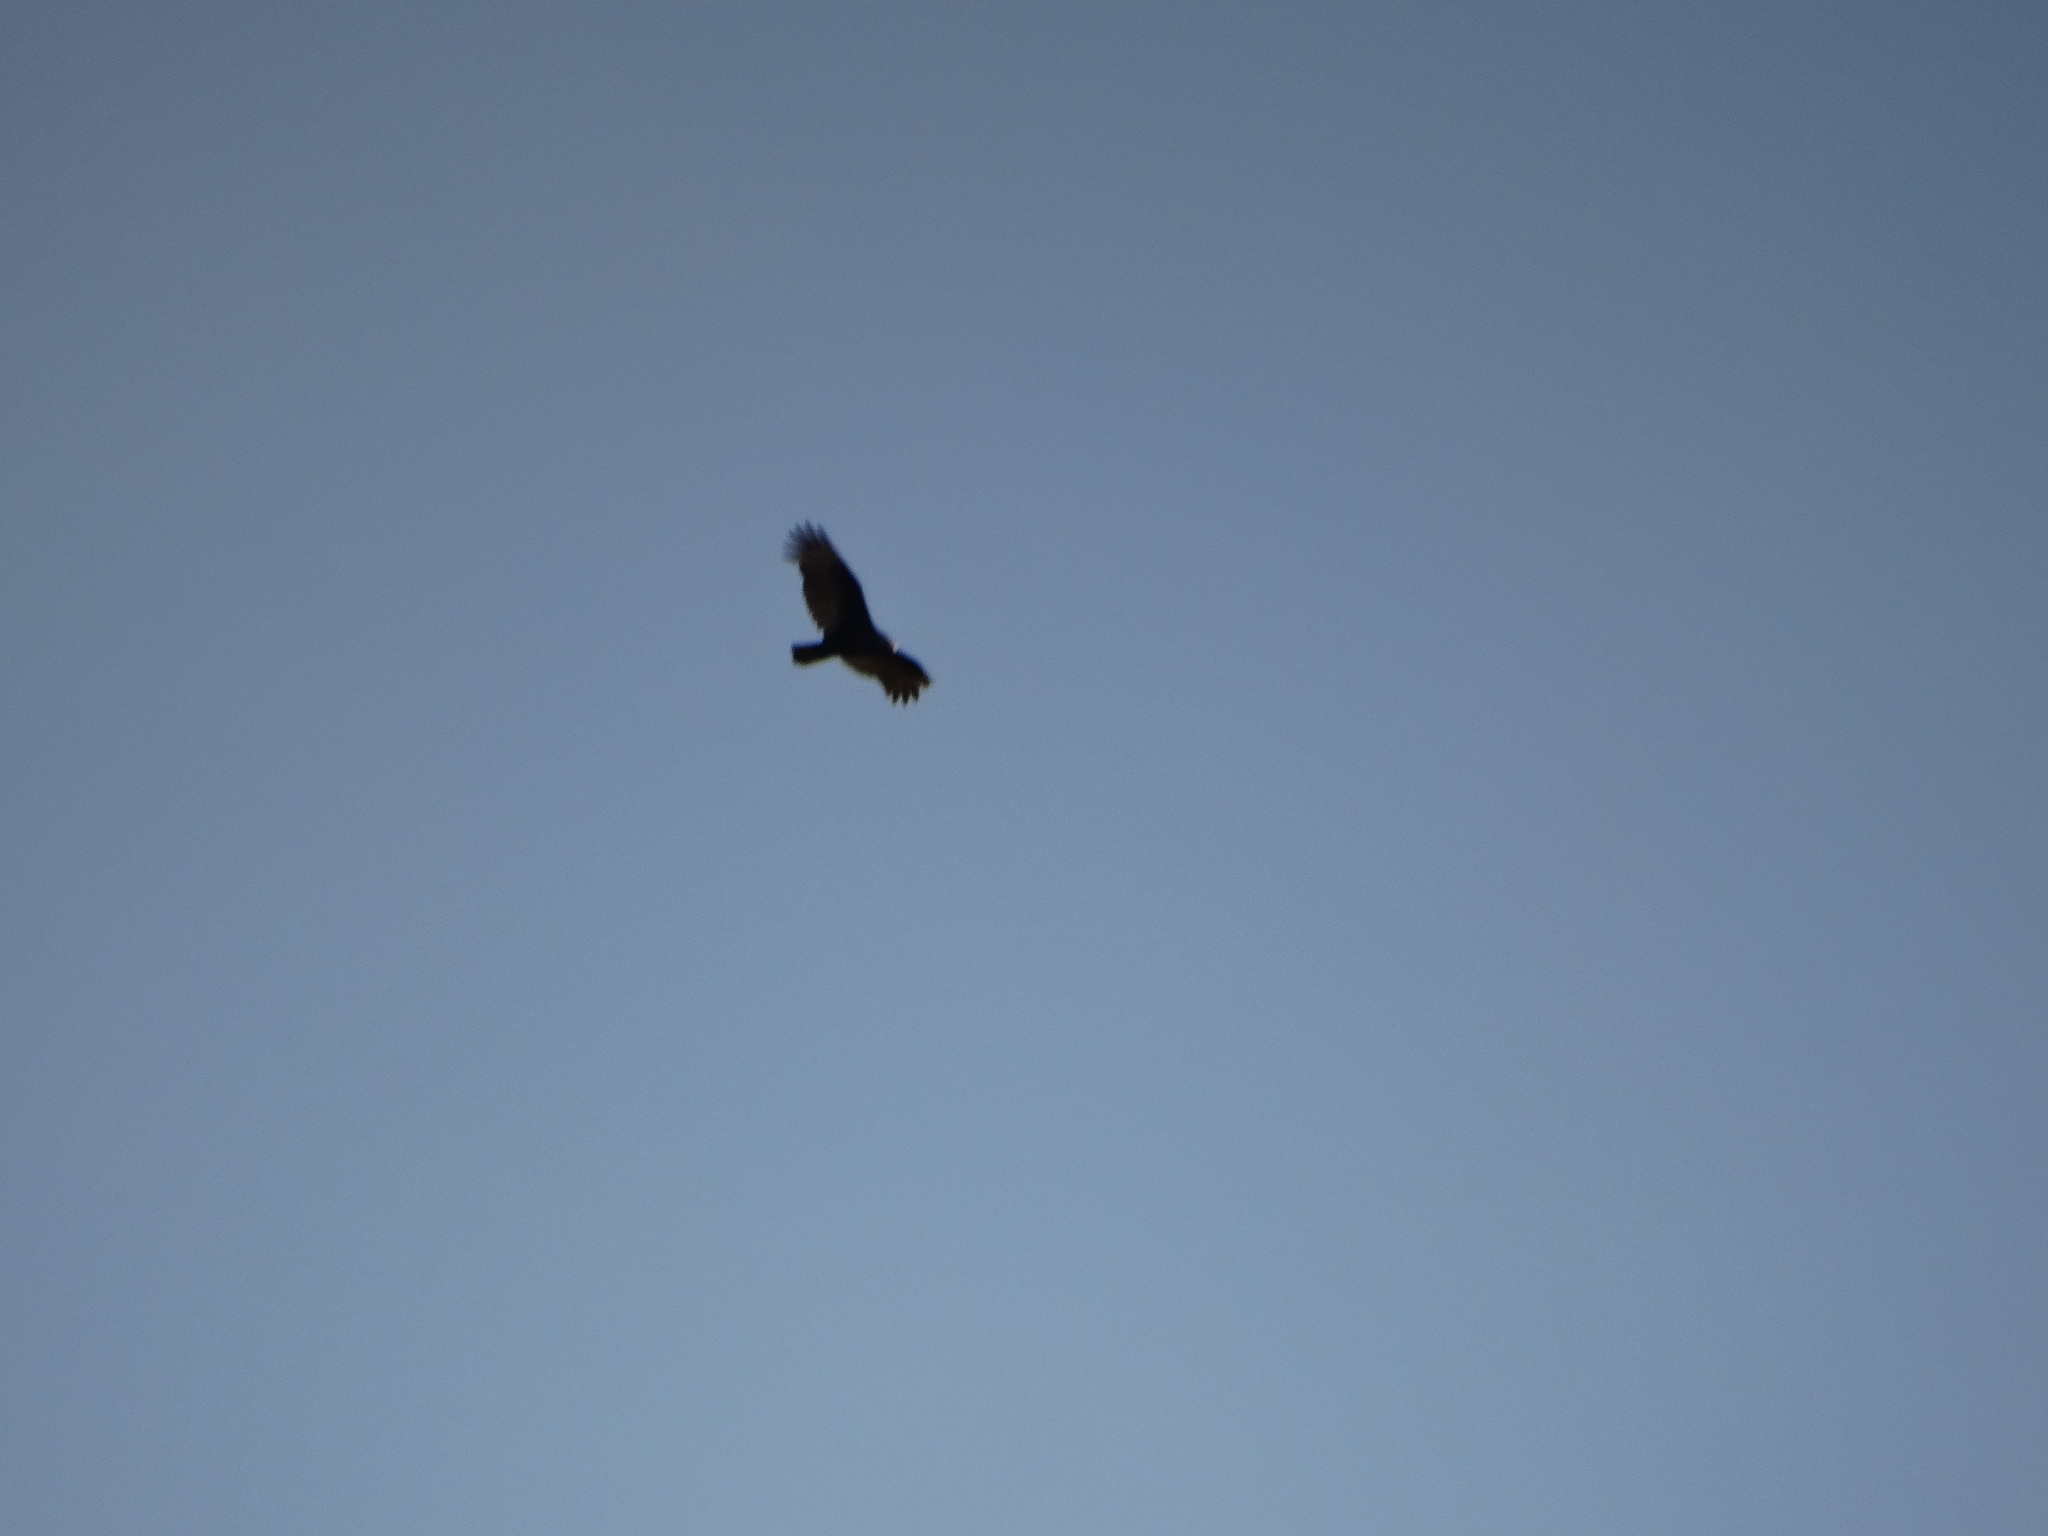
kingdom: Animalia
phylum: Chordata
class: Aves
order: Accipitriformes
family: Cathartidae
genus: Cathartes
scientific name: Cathartes aura
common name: Turkey vulture
